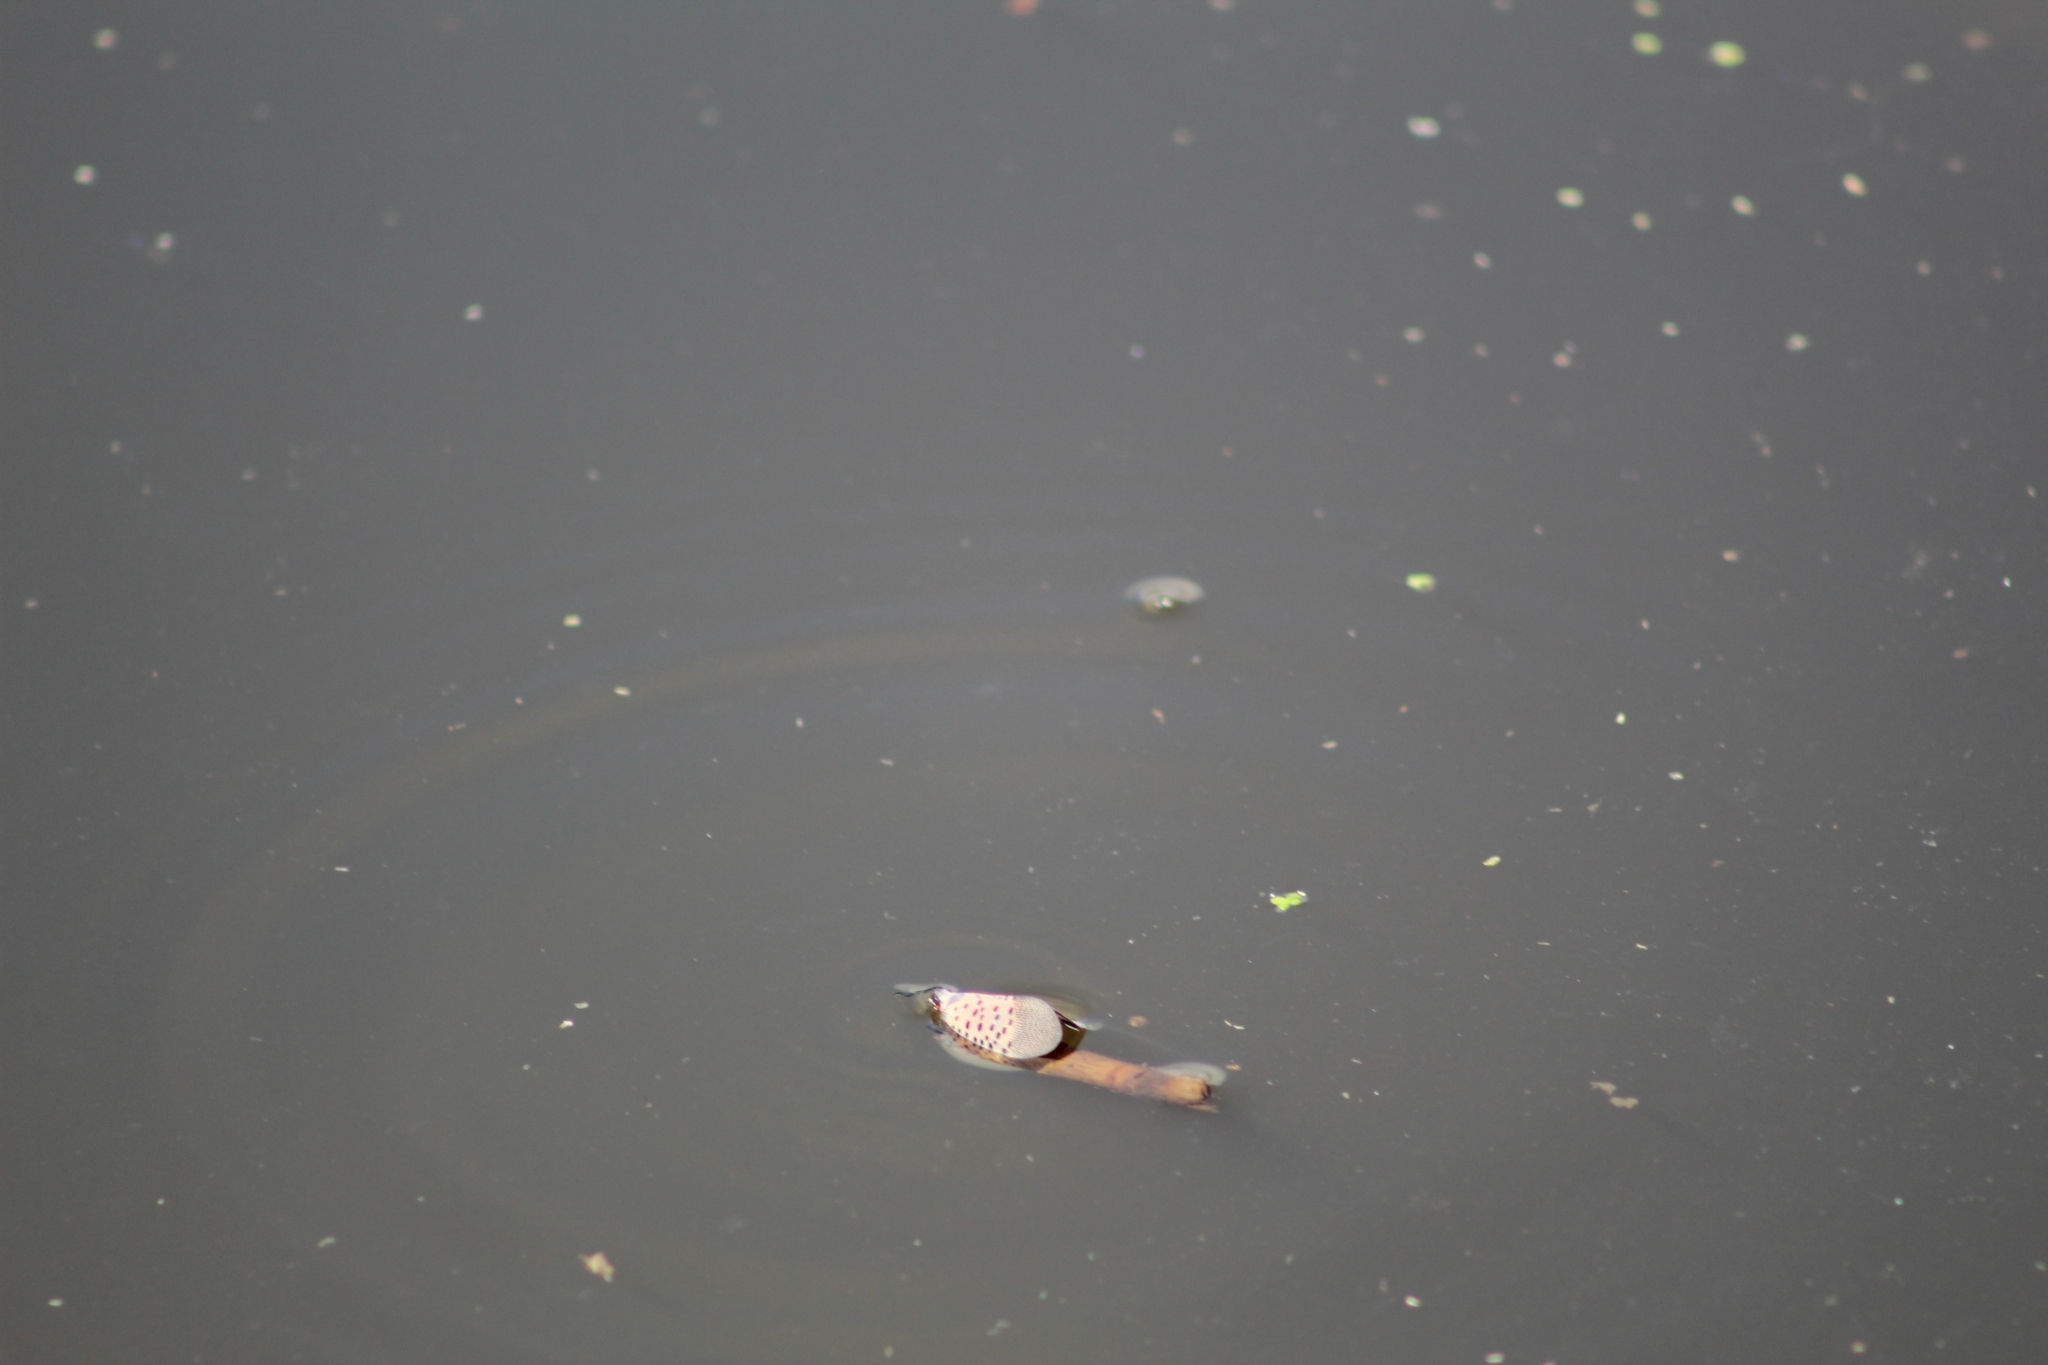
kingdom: Animalia
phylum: Arthropoda
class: Insecta
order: Hemiptera
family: Fulgoridae
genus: Lycorma
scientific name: Lycorma delicatula
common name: Spotted lanternfly
